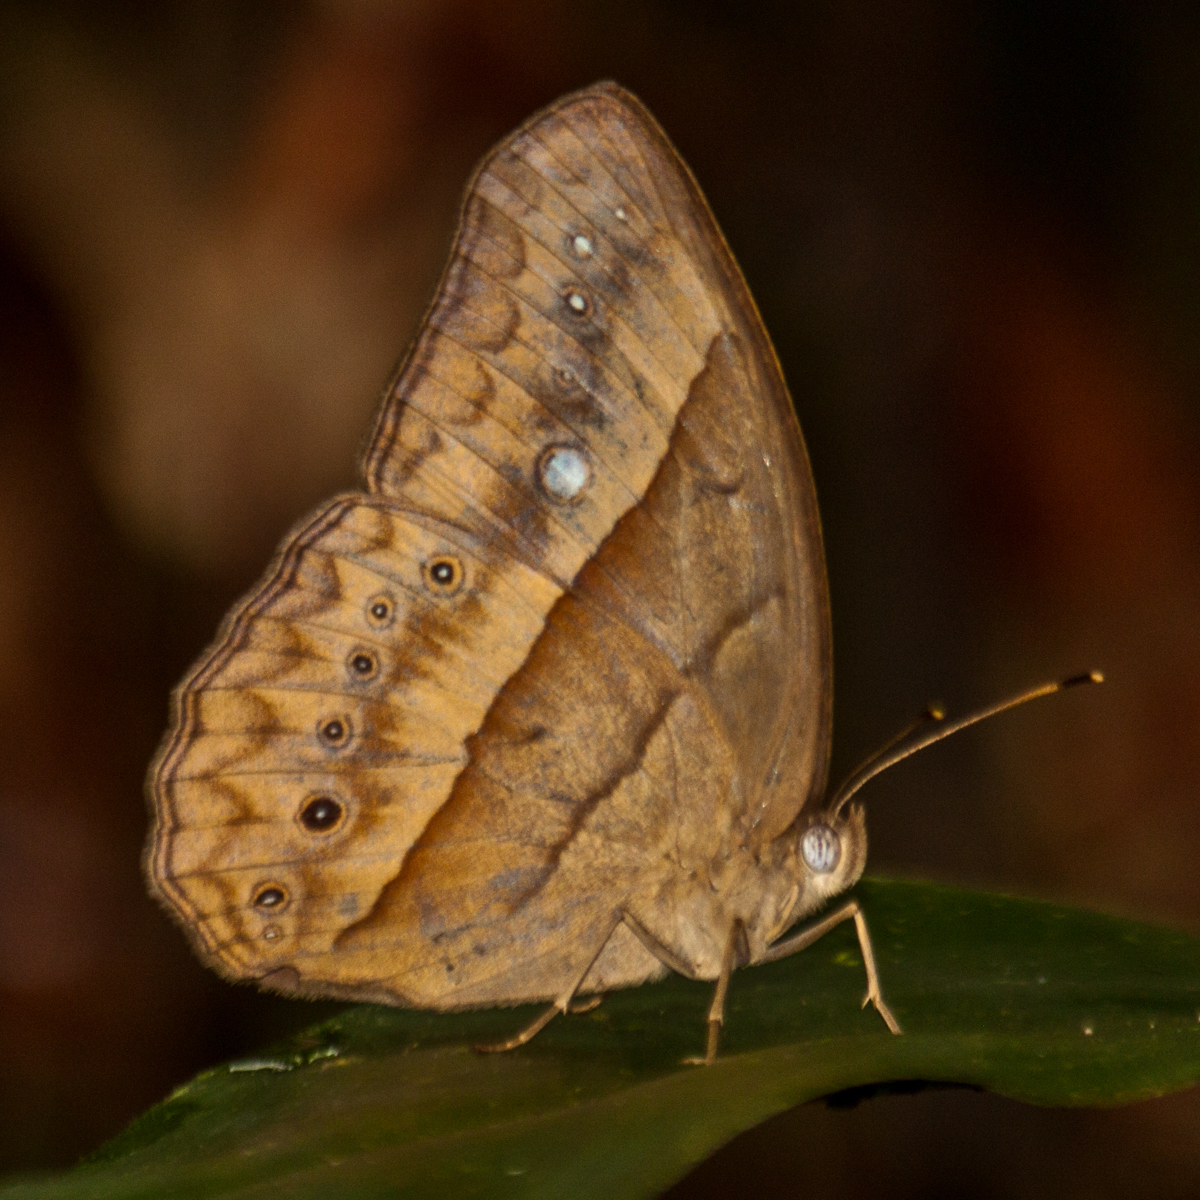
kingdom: Animalia
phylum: Arthropoda
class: Insecta
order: Lepidoptera
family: Nymphalidae
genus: Mycalesis
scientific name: Mycalesis mnasicles
